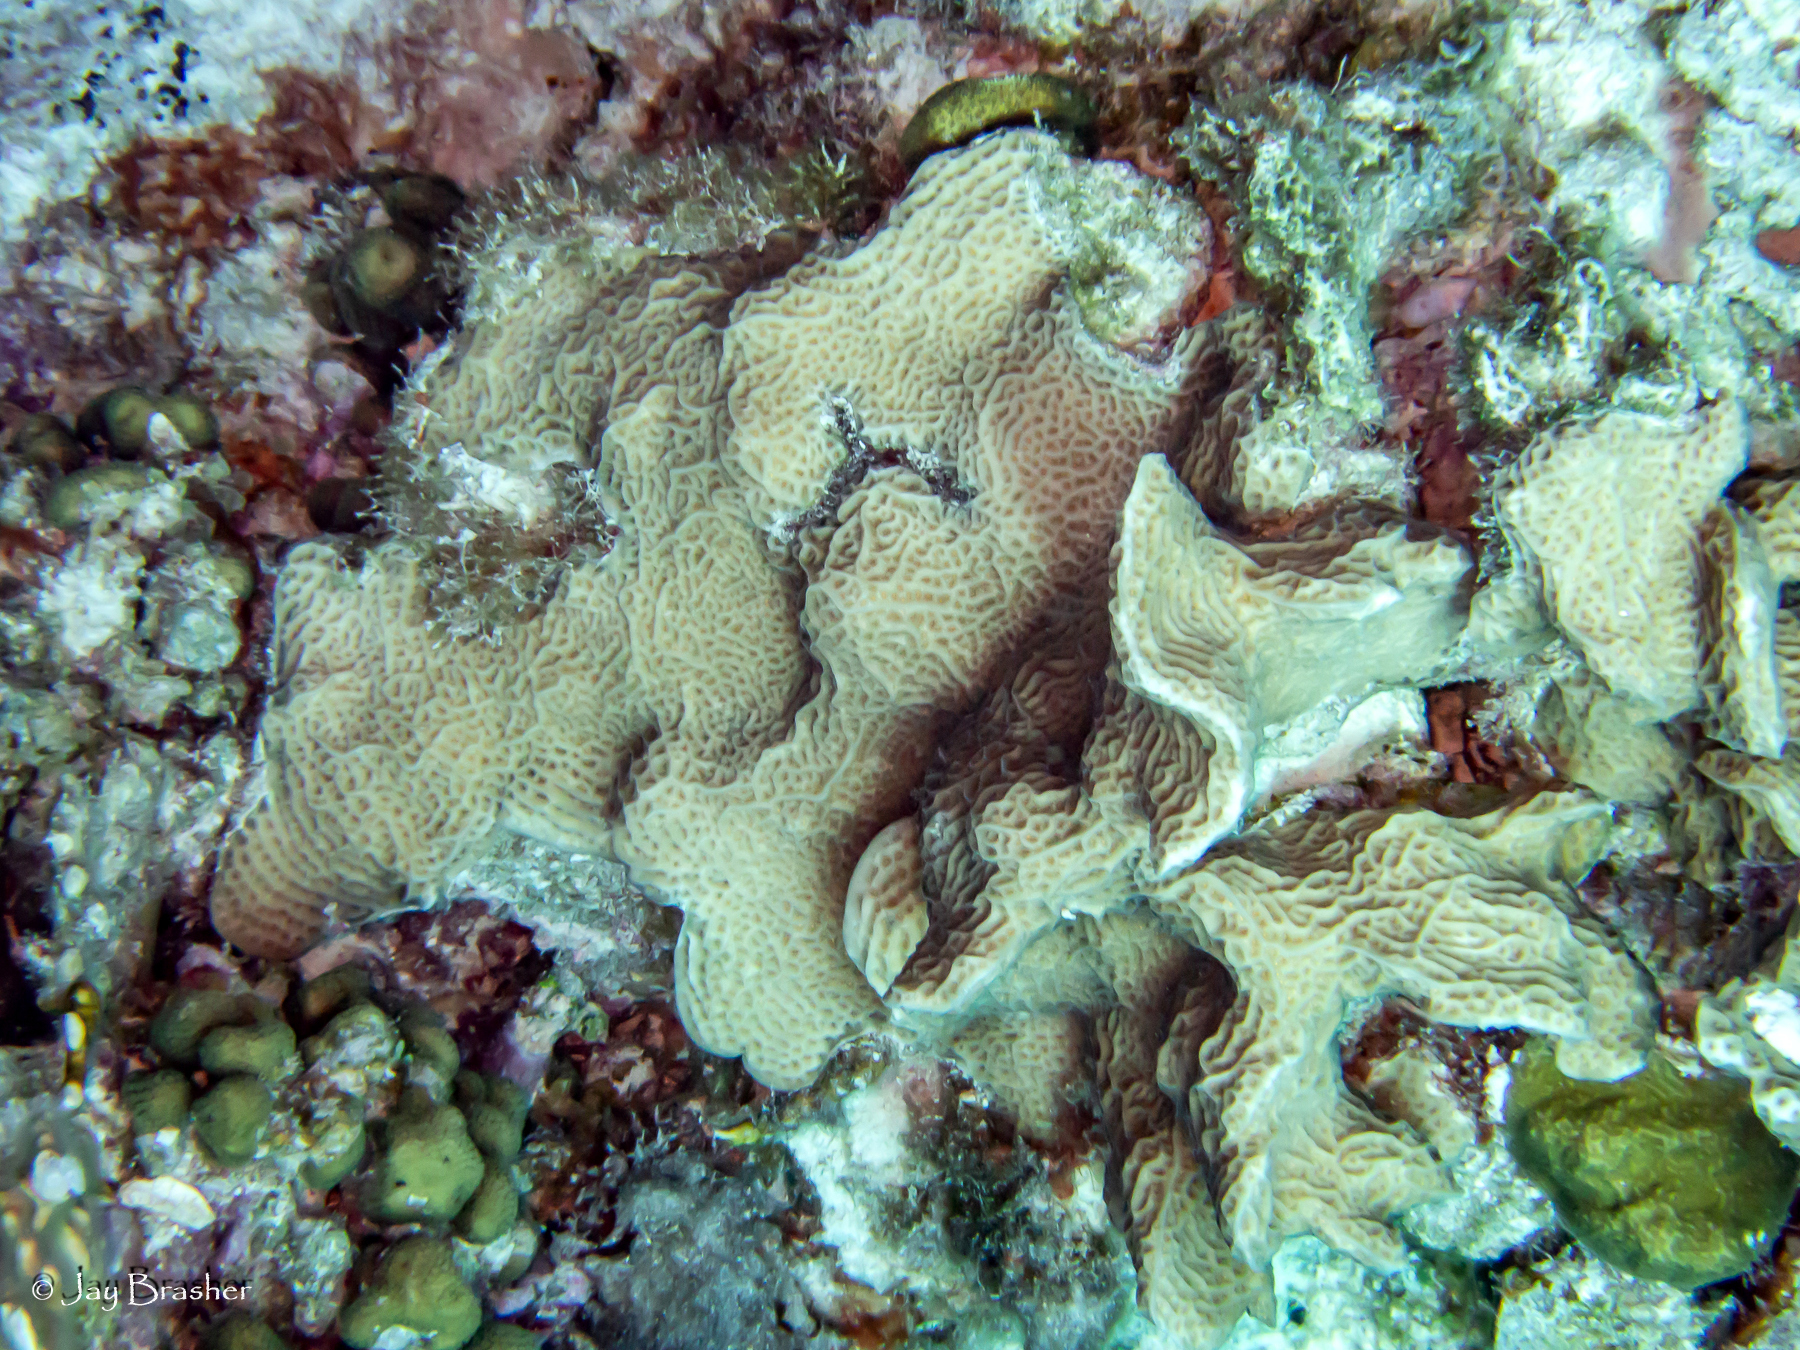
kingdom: Animalia
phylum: Cnidaria
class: Anthozoa
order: Scleractinia
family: Agariciidae
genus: Agaricia
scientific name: Agaricia agaricites
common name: Lettuce coral
